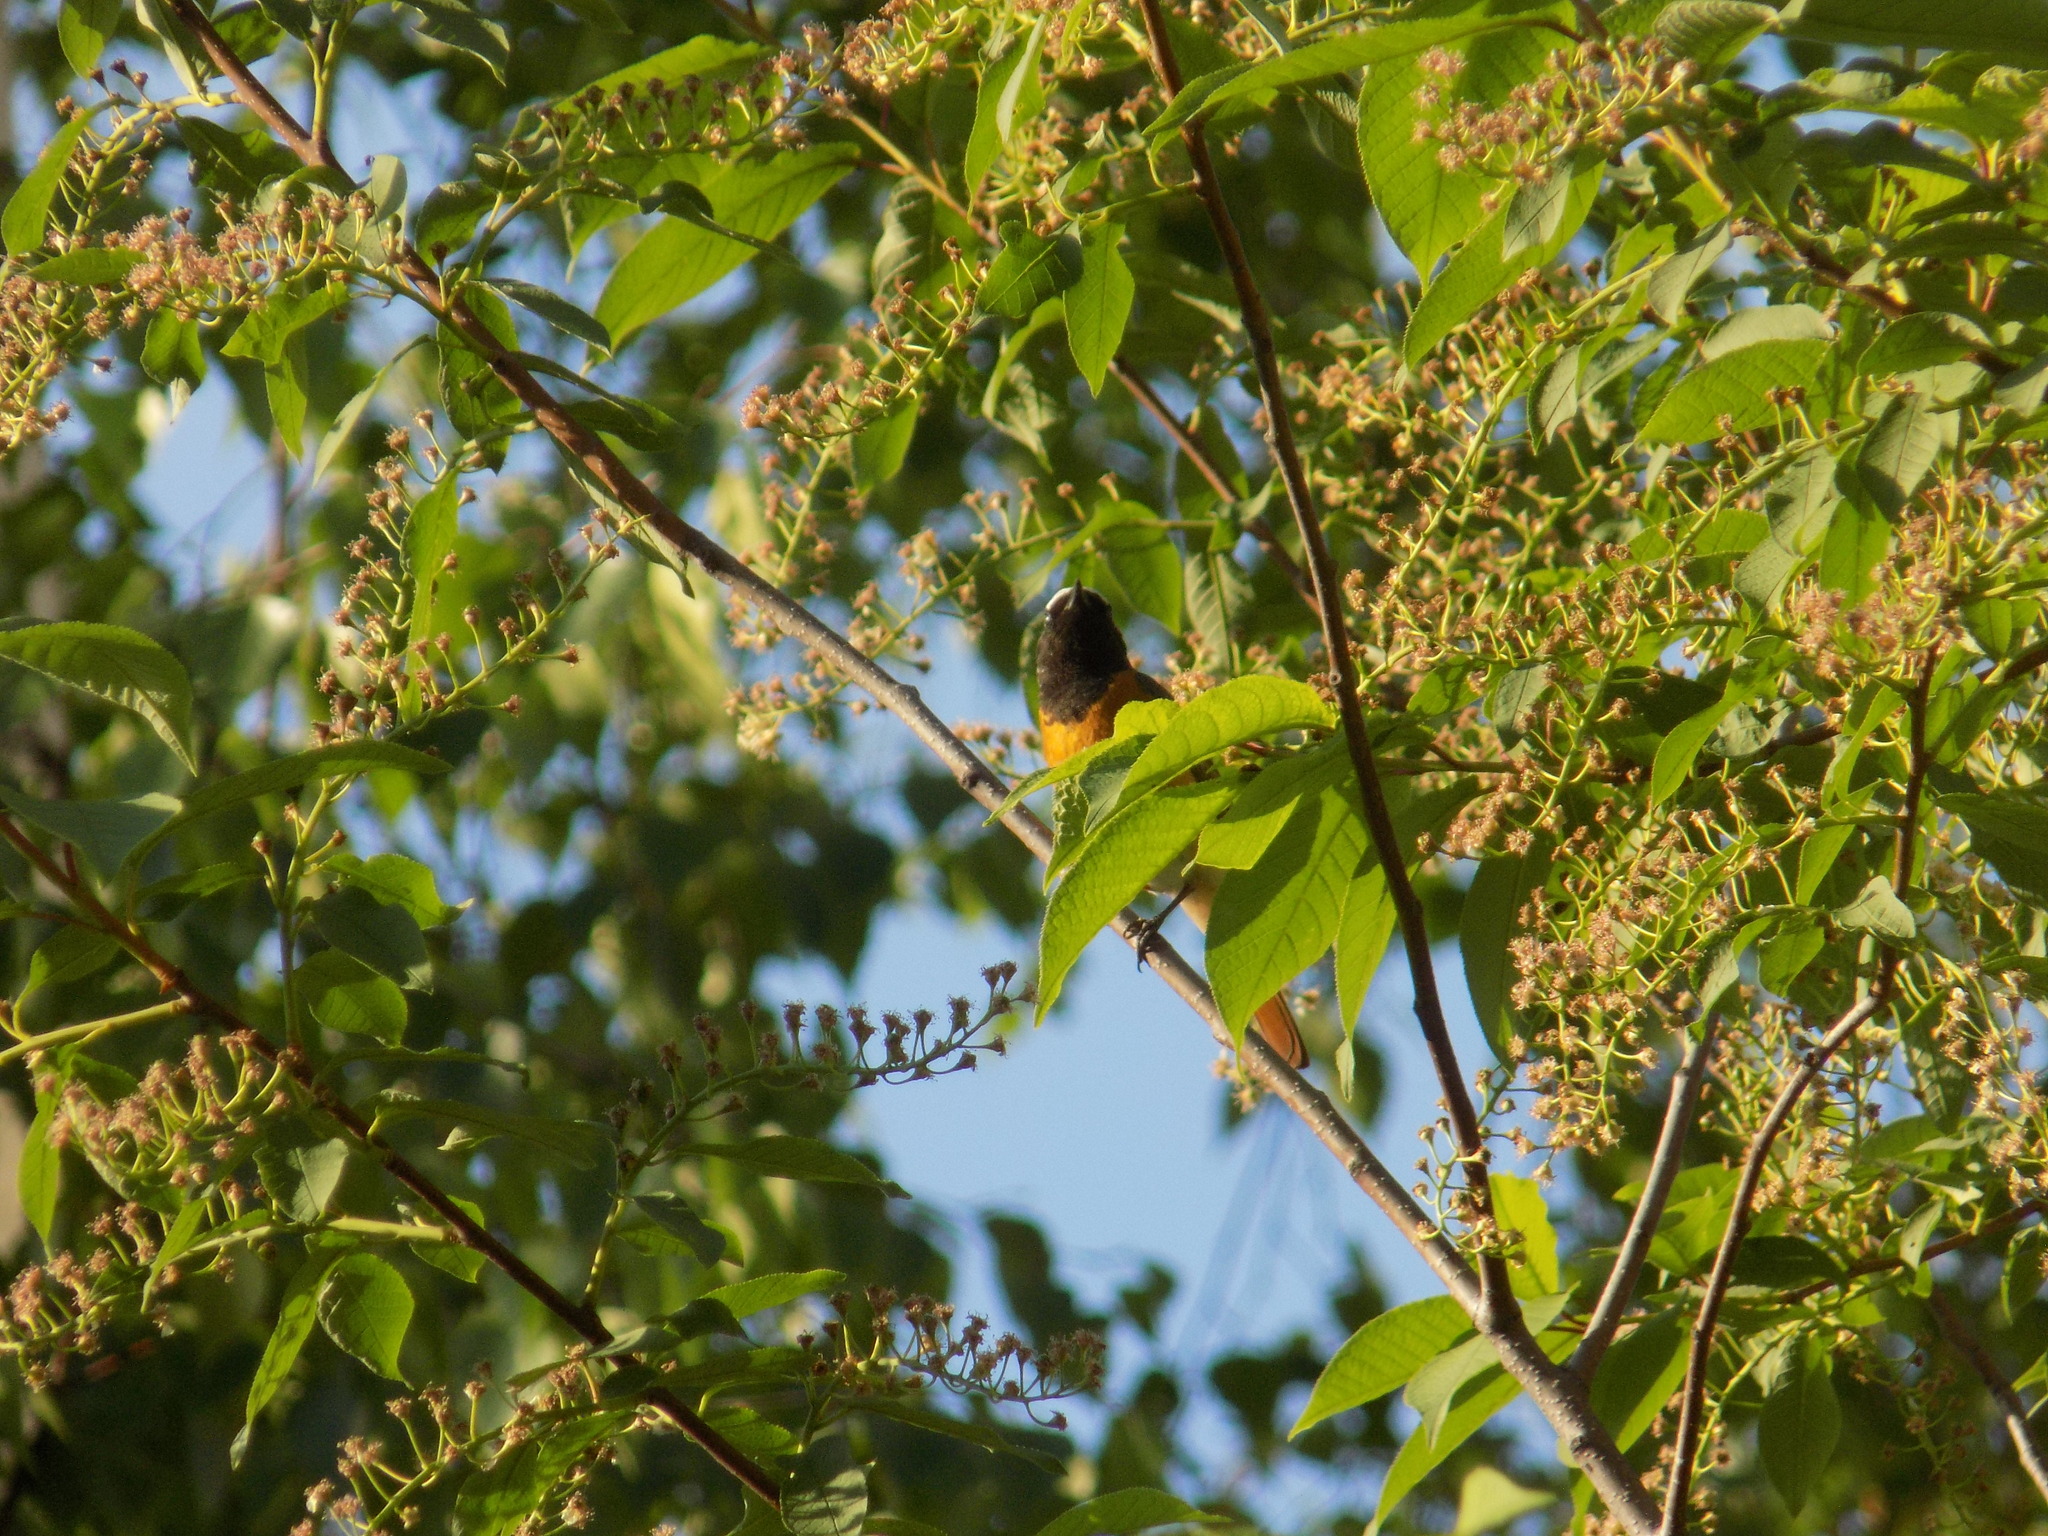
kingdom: Animalia
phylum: Chordata
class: Aves
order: Passeriformes
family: Muscicapidae
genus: Phoenicurus
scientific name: Phoenicurus phoenicurus
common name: Common redstart
